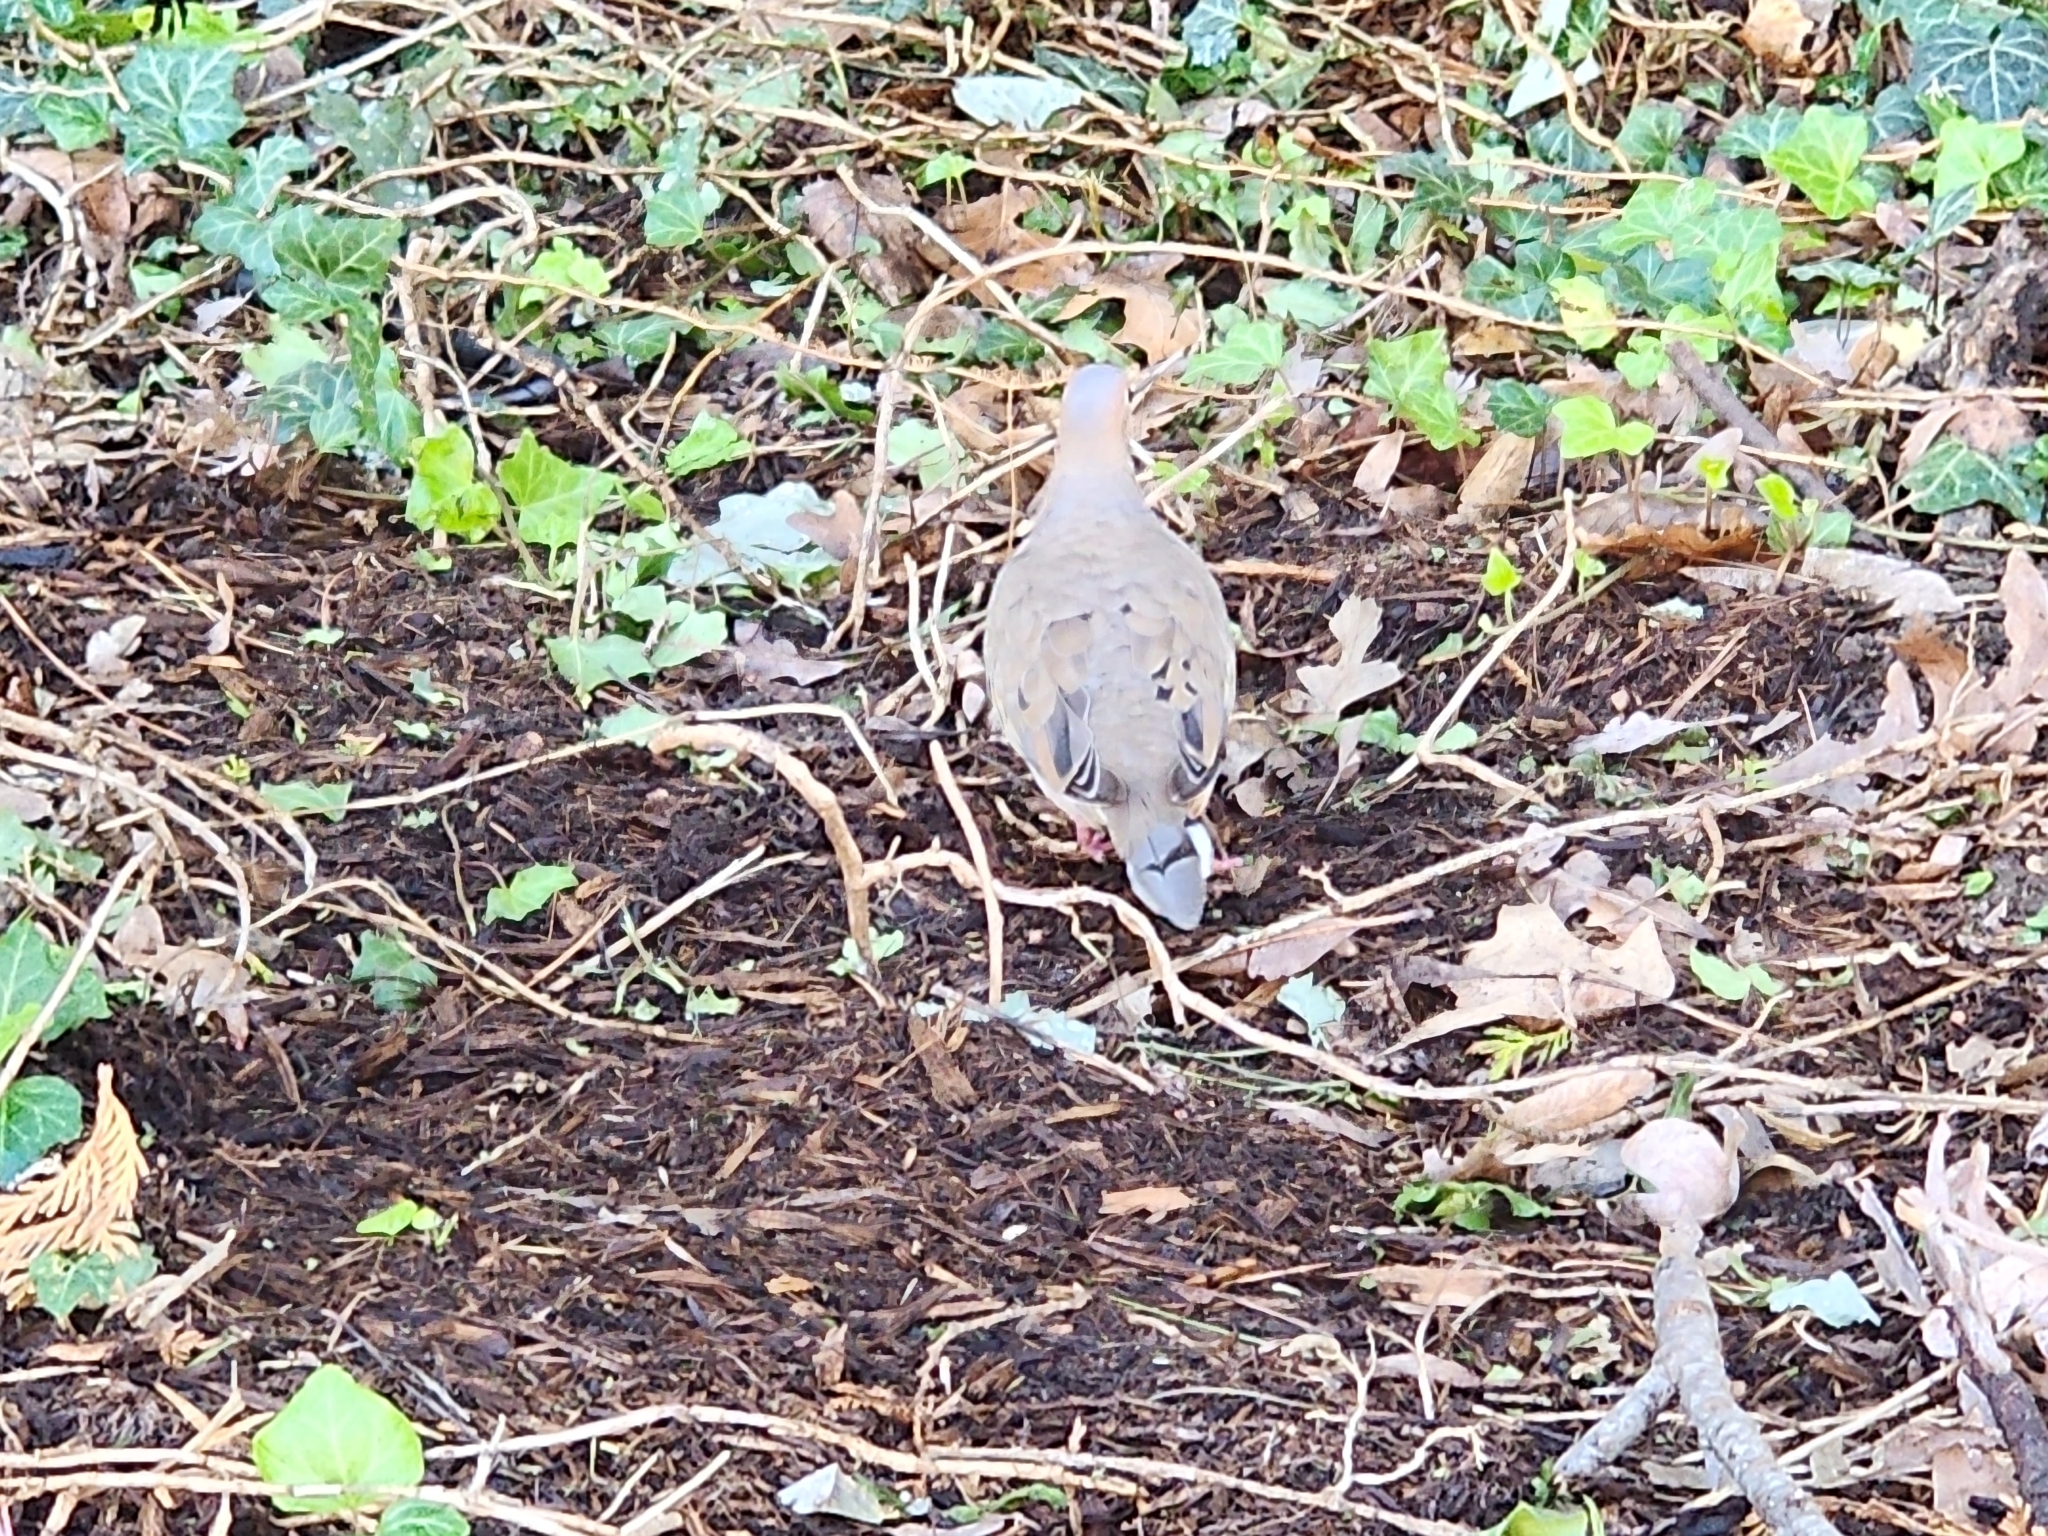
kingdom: Animalia
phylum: Chordata
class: Aves
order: Columbiformes
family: Columbidae
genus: Zenaida
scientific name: Zenaida macroura
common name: Mourning dove
